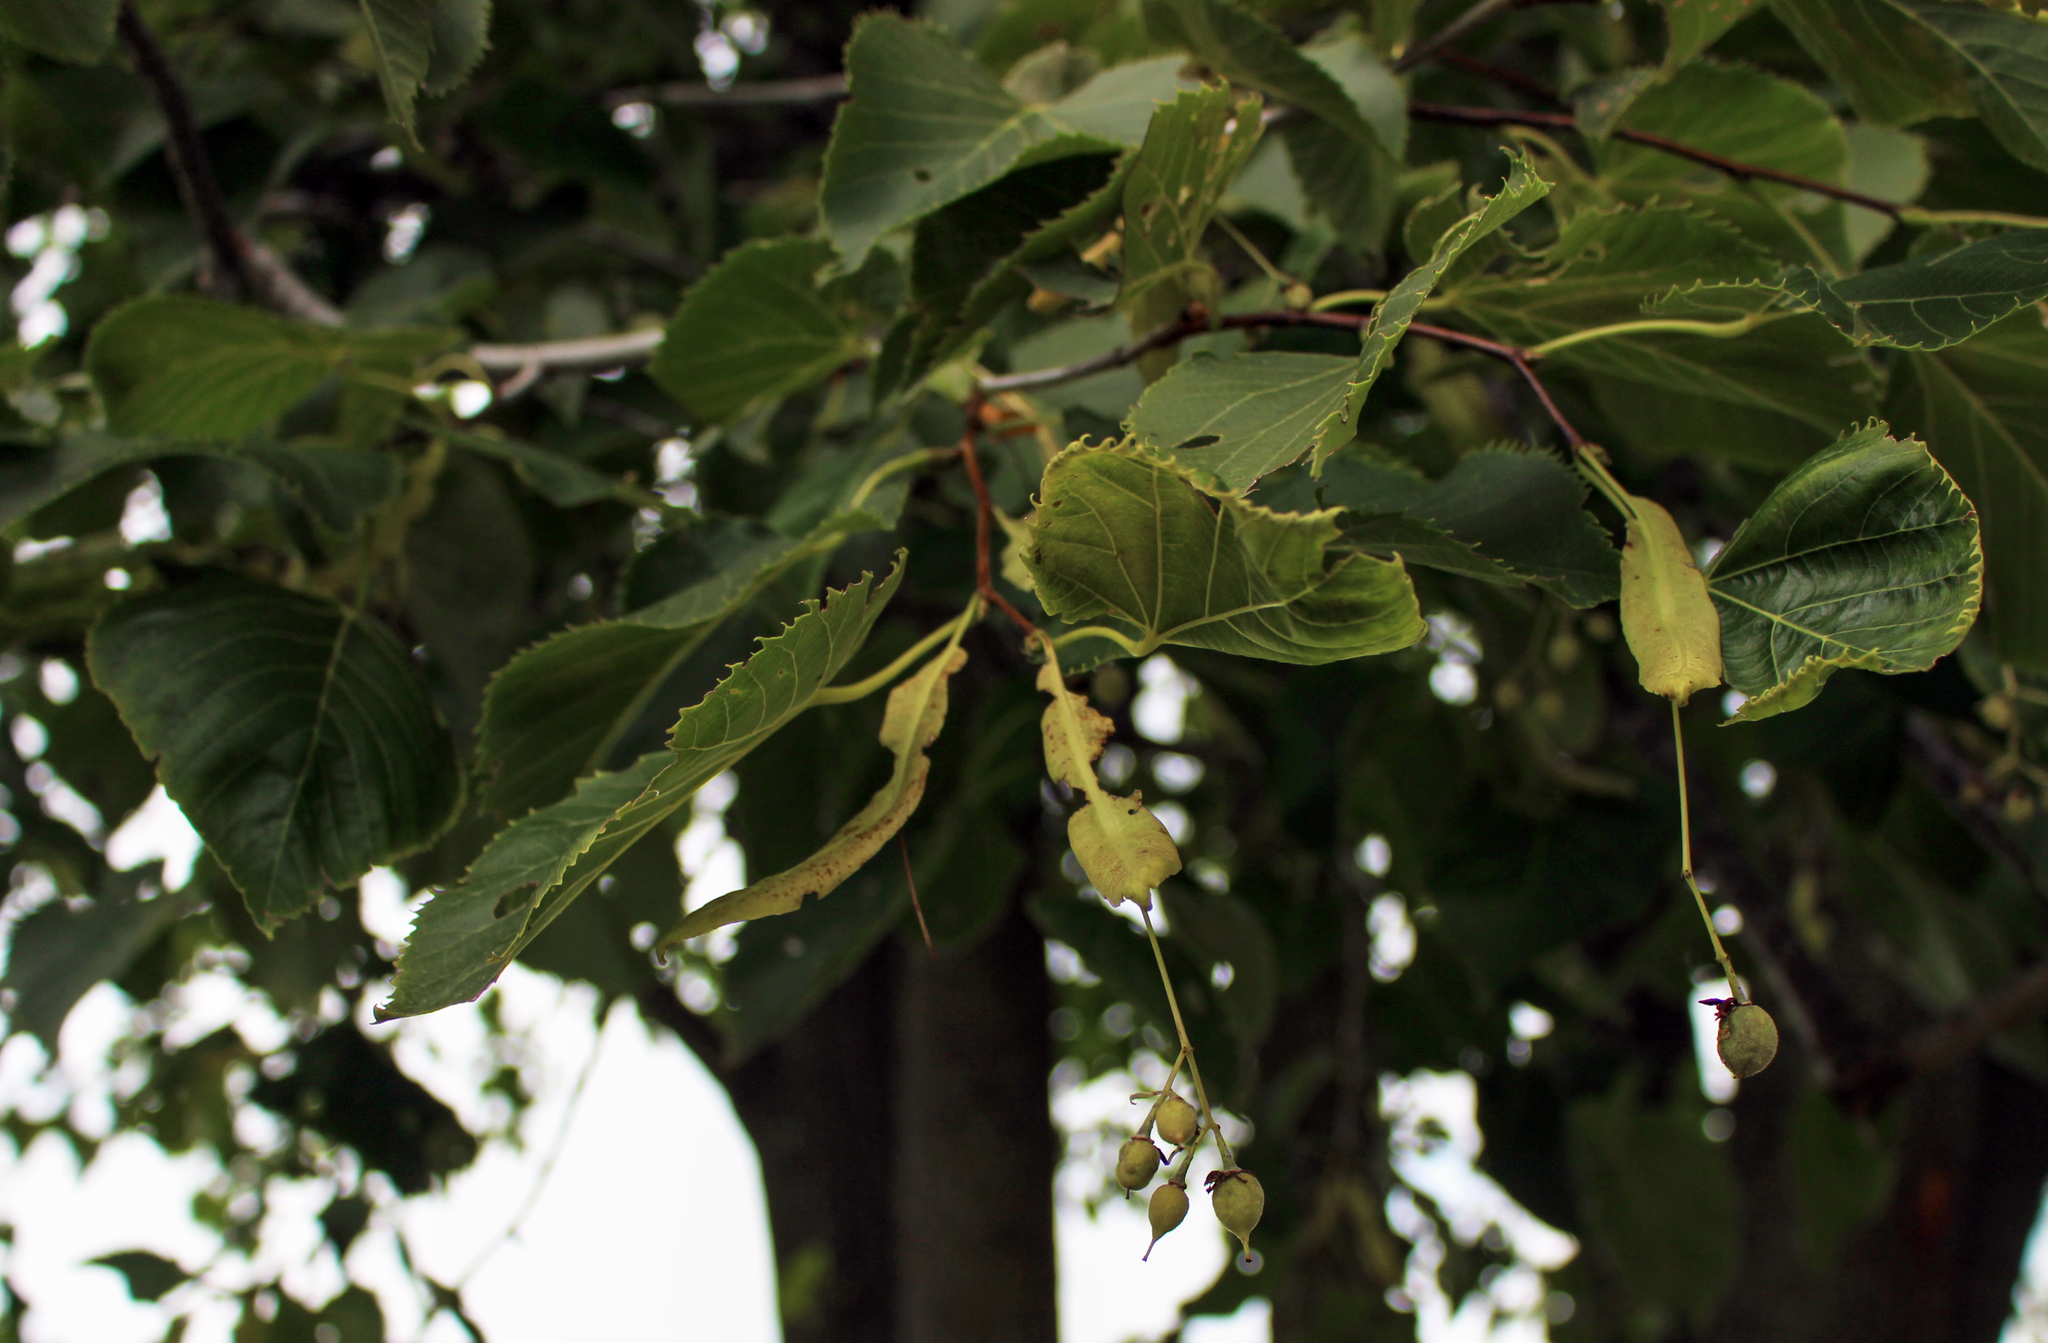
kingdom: Plantae
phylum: Tracheophyta
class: Magnoliopsida
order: Malvales
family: Malvaceae
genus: Tilia
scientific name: Tilia americana
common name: Basswood
